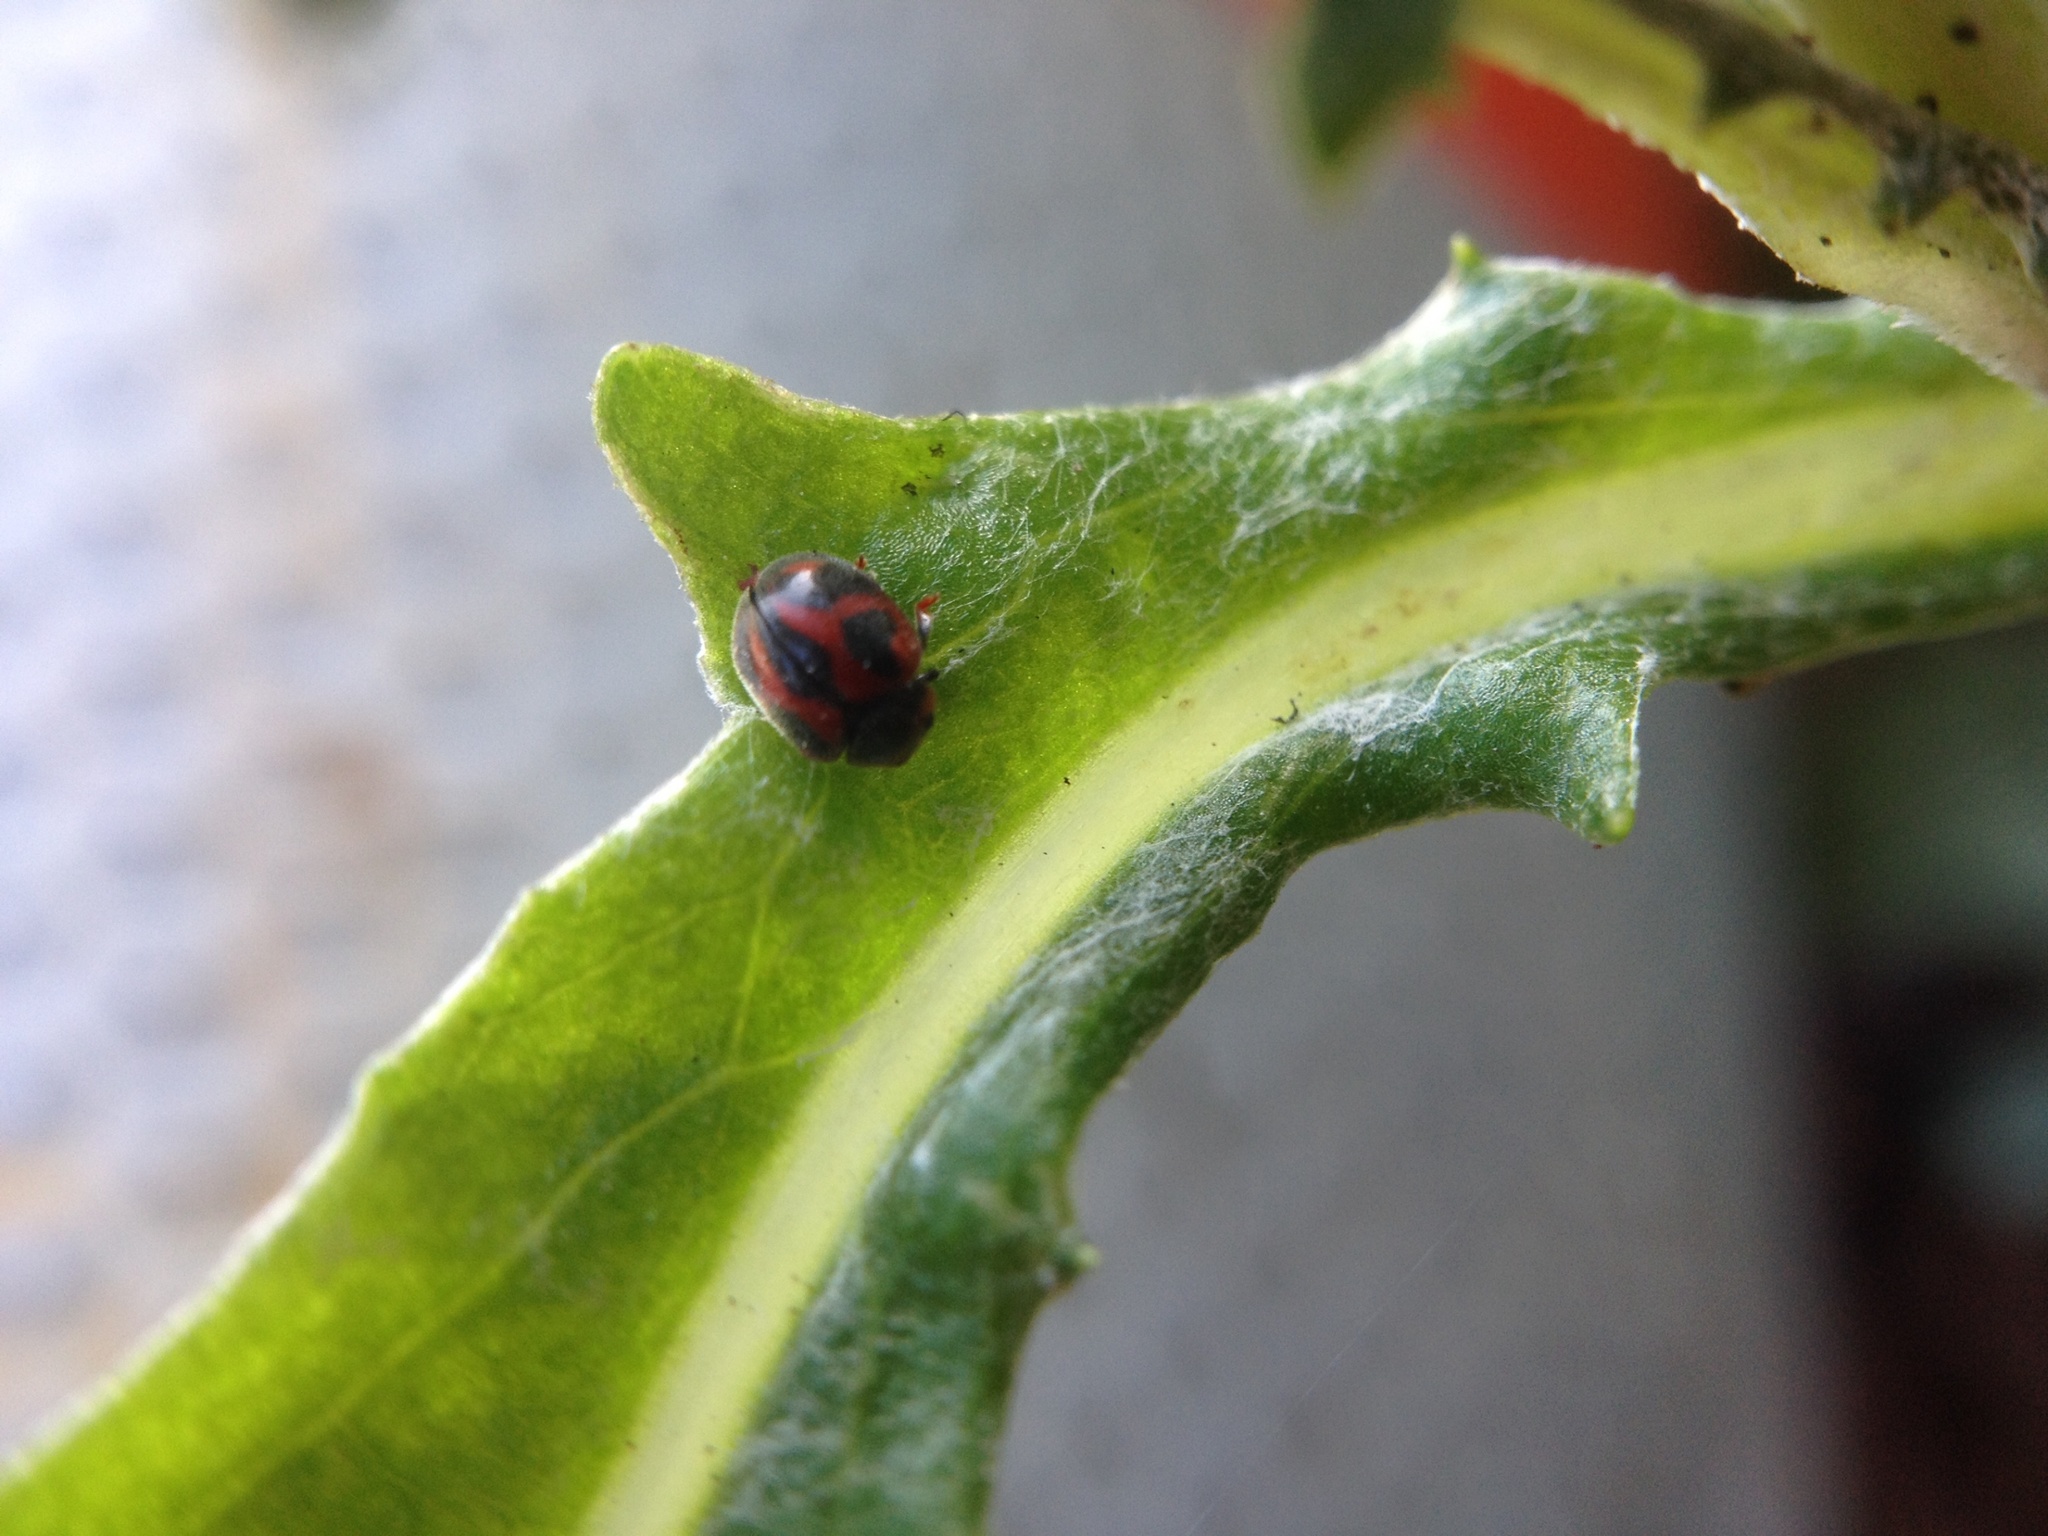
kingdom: Animalia
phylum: Arthropoda
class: Insecta
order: Coleoptera
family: Coccinellidae
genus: Novius
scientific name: Novius cardinalis
